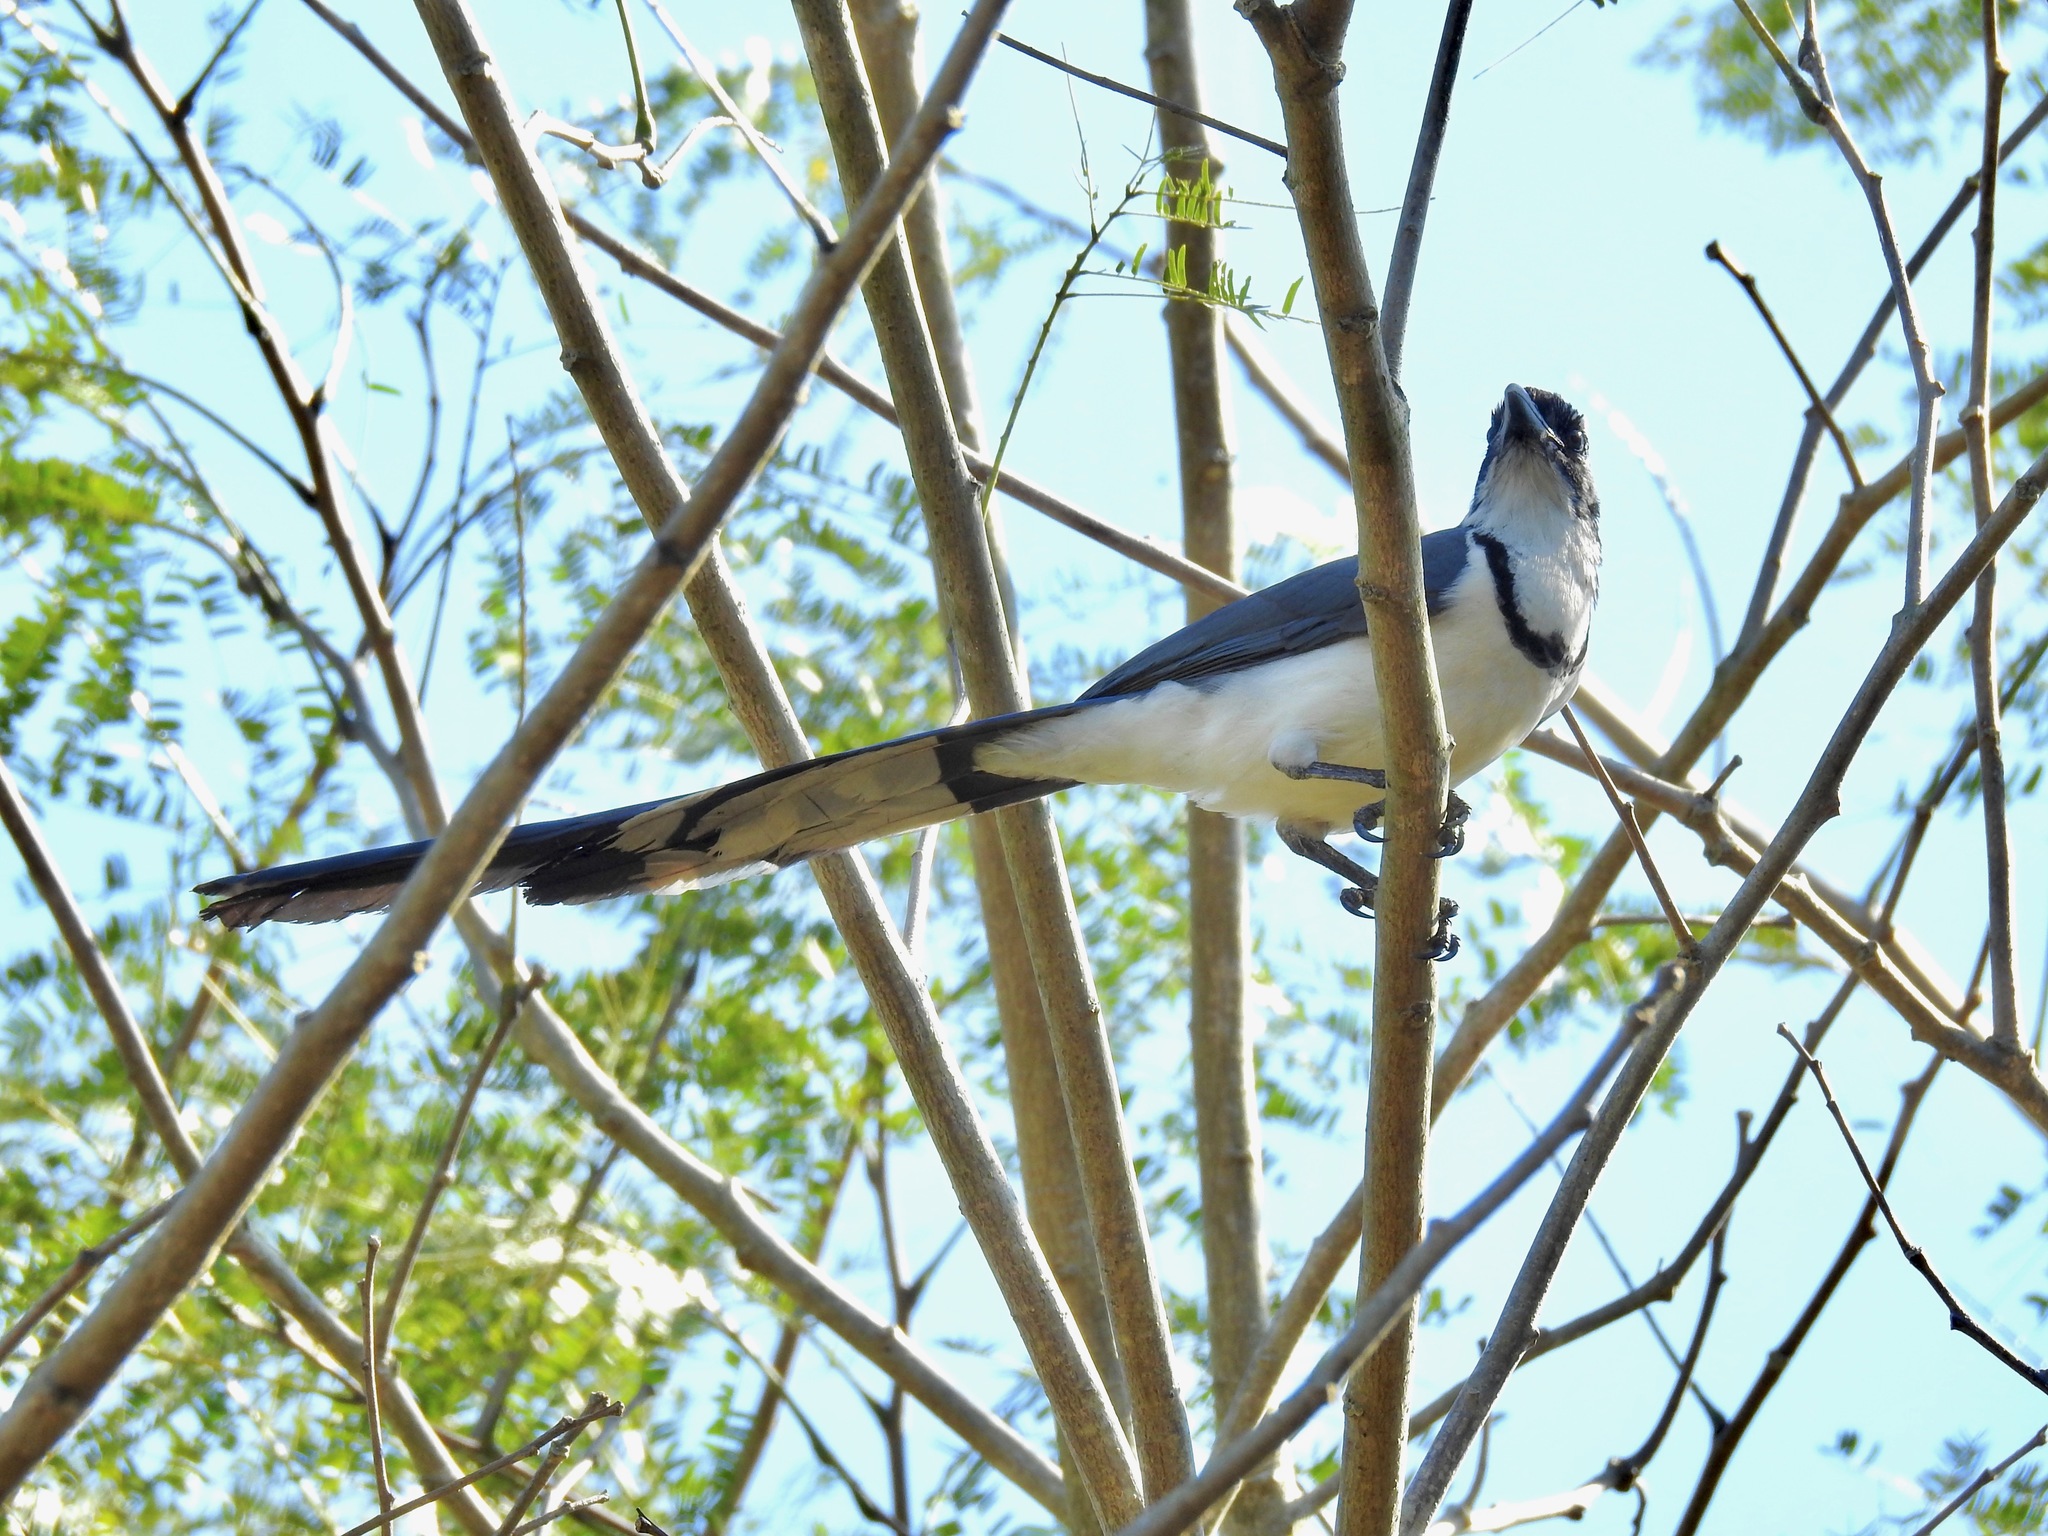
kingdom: Animalia
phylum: Chordata
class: Aves
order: Passeriformes
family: Corvidae
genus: Calocitta
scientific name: Calocitta colliei
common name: Black-throated magpie-jay
